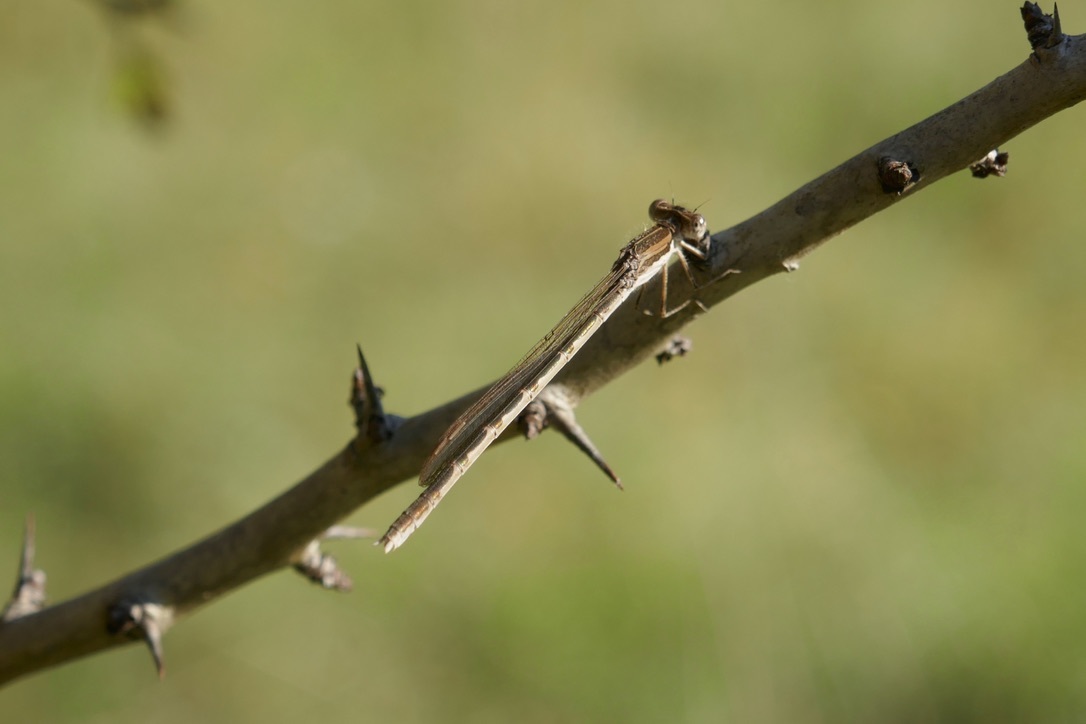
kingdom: Animalia
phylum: Arthropoda
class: Insecta
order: Odonata
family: Lestidae
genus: Sympecma
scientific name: Sympecma fusca
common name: Common winter damsel
